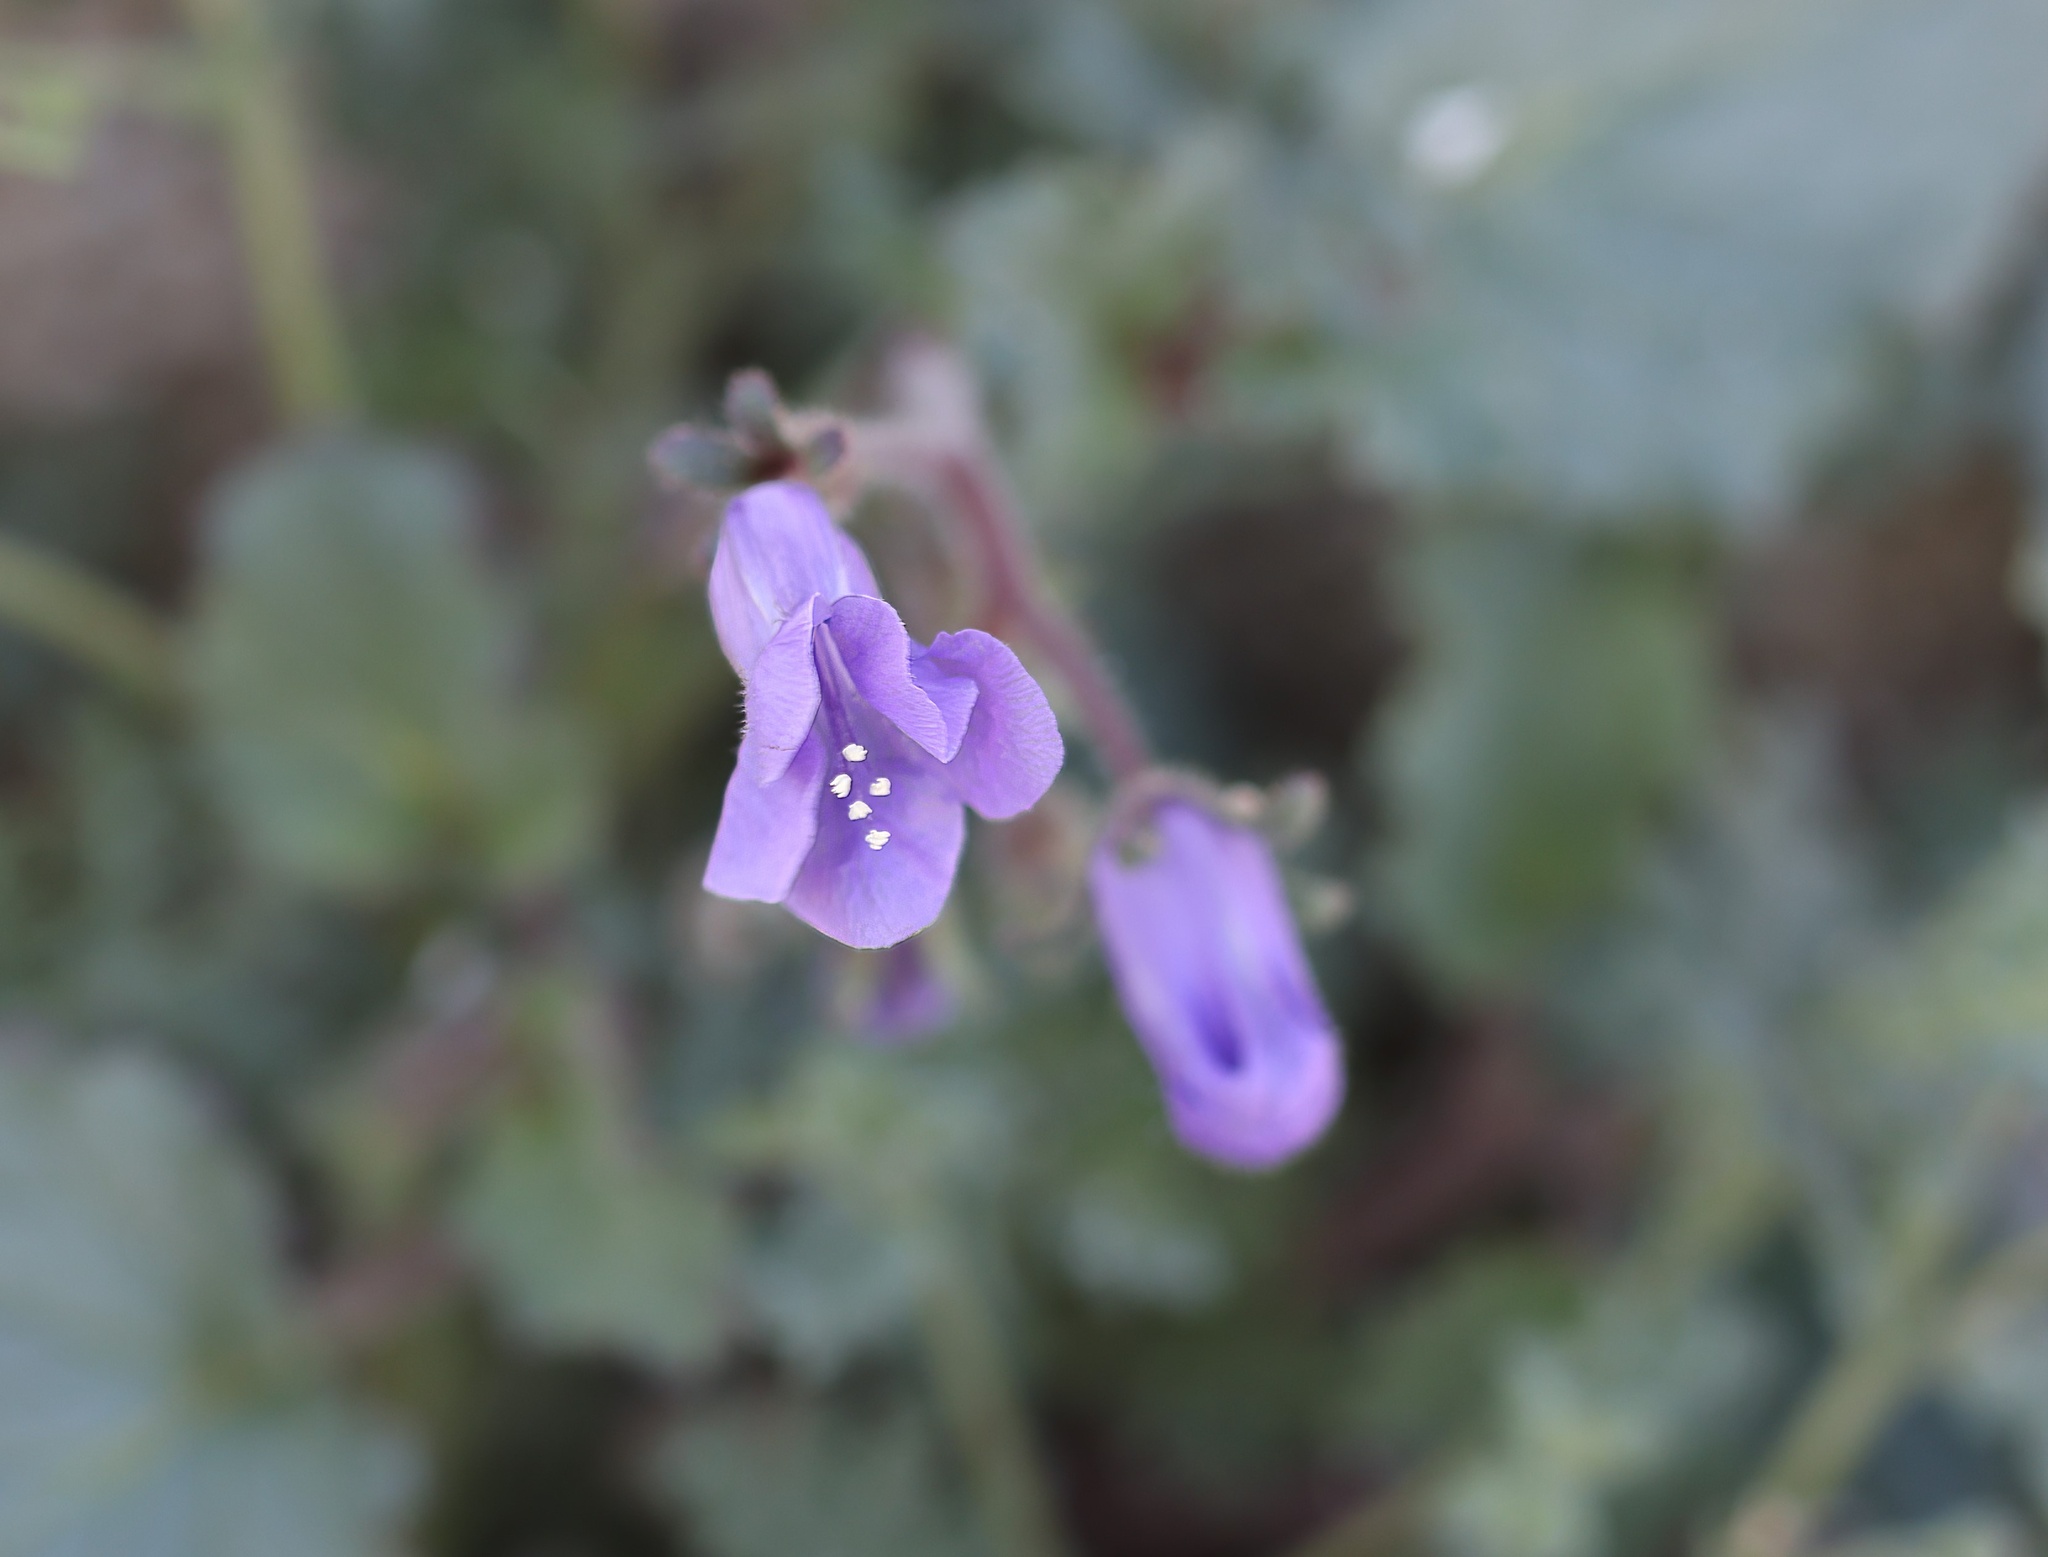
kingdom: Plantae
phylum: Tracheophyta
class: Magnoliopsida
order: Boraginales
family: Hydrophyllaceae
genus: Phacelia
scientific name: Phacelia minor
